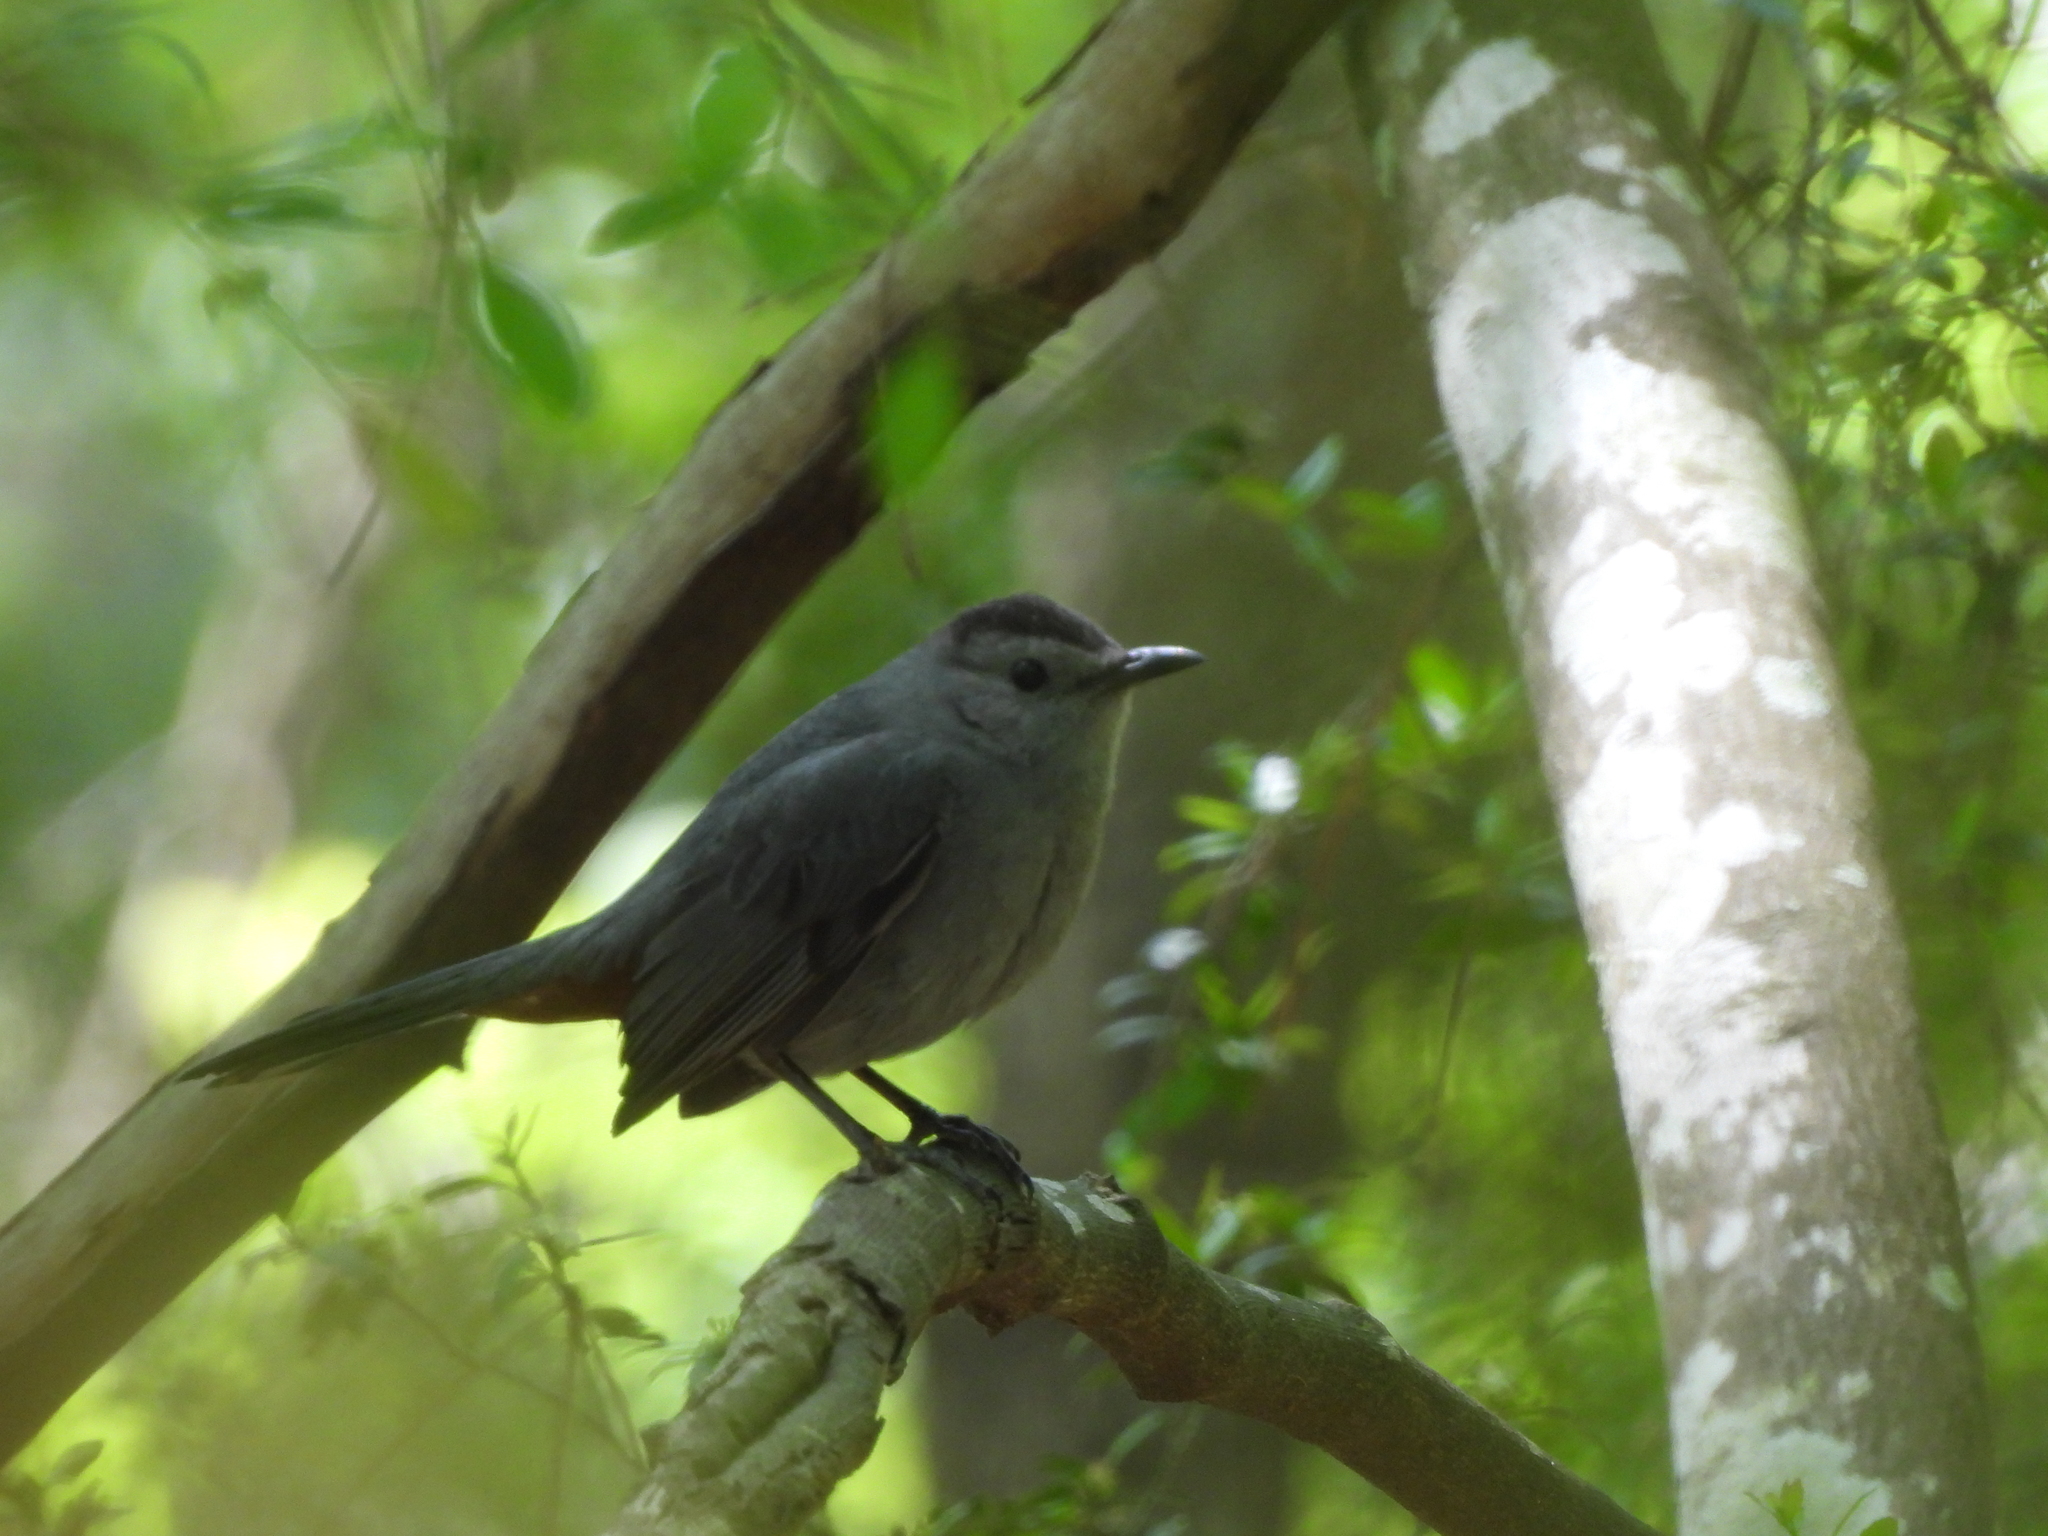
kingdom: Animalia
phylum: Chordata
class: Aves
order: Passeriformes
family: Mimidae
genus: Dumetella
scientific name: Dumetella carolinensis
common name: Gray catbird
